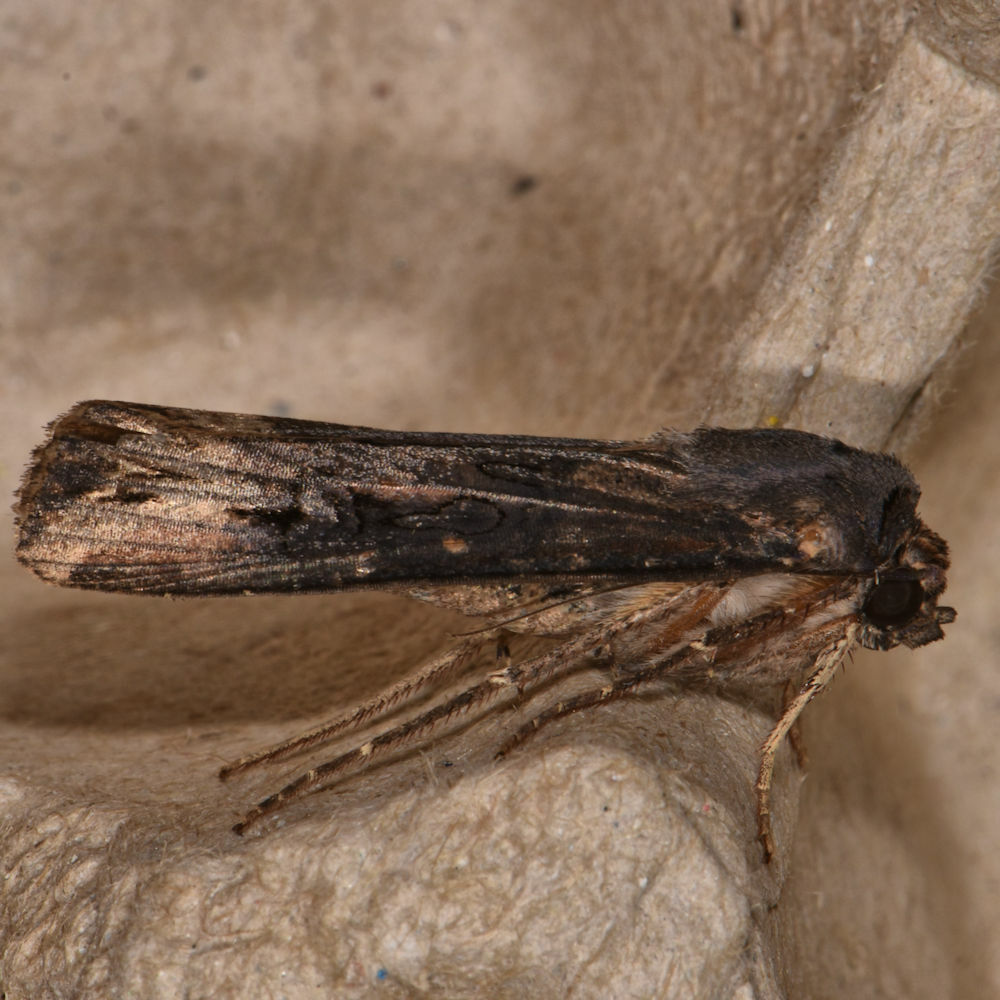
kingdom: Animalia
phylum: Arthropoda
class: Insecta
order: Lepidoptera
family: Noctuidae
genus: Agrotis
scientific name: Agrotis ipsilon
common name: Dark sword-grass
